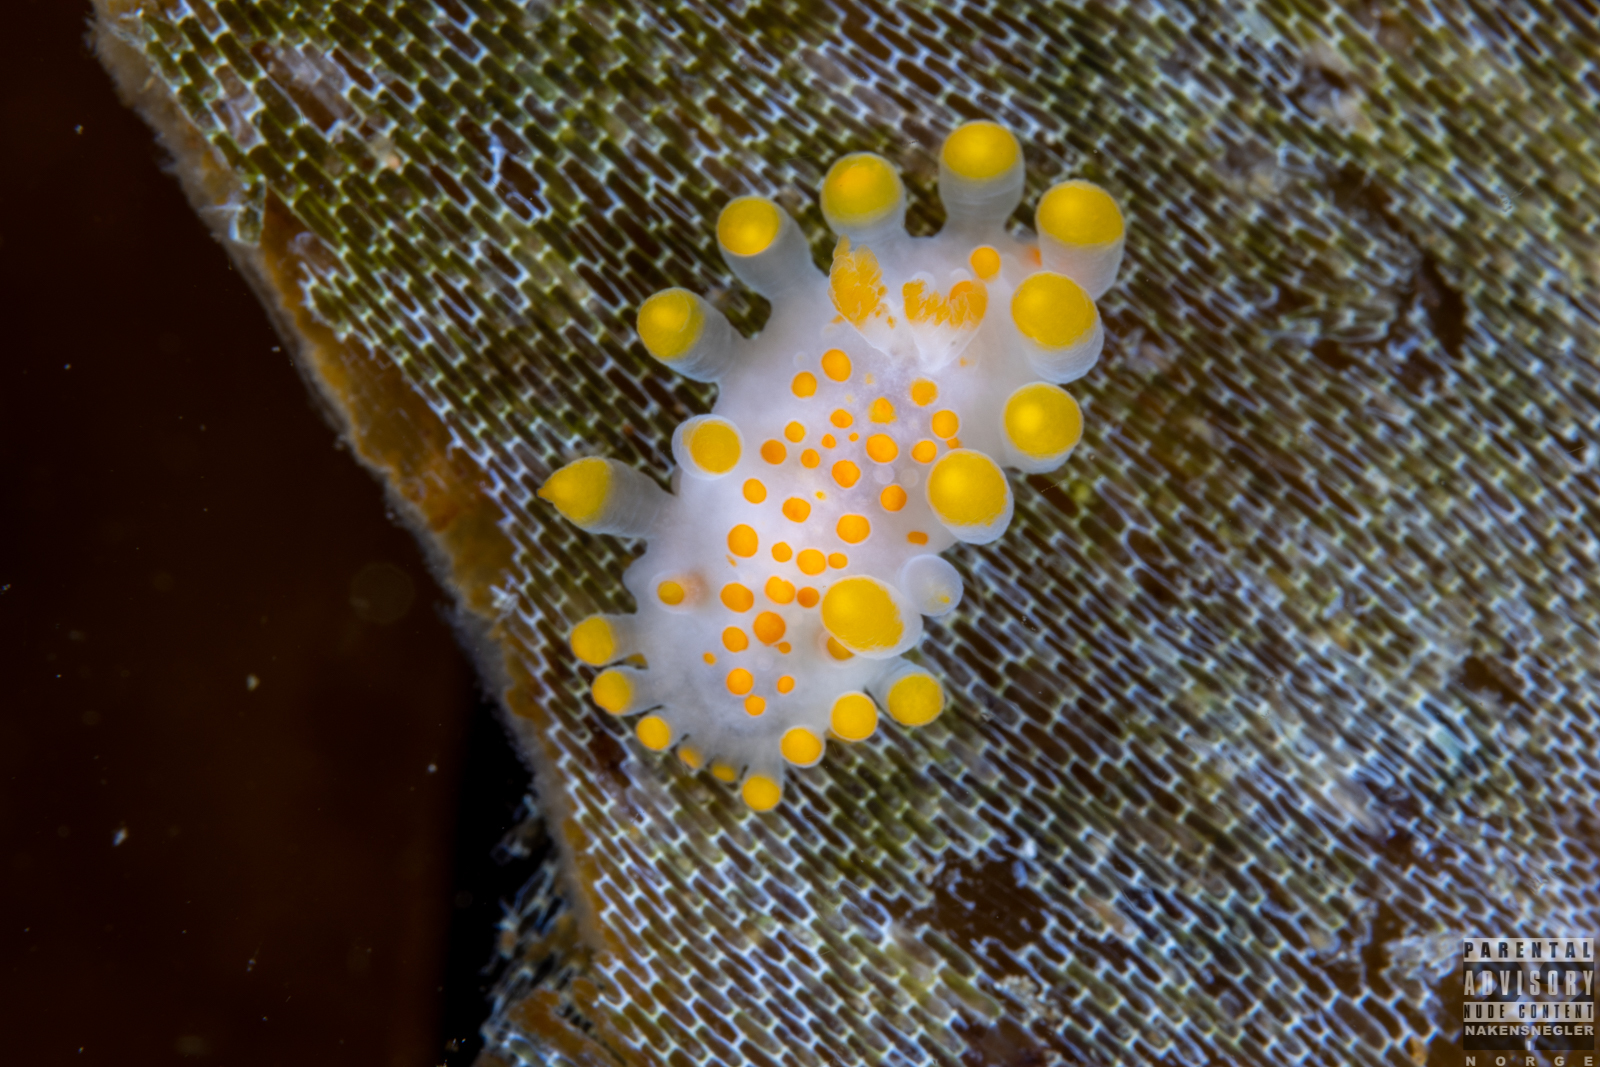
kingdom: Animalia
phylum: Mollusca
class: Gastropoda
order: Nudibranchia
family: Polyceridae
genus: Limacia
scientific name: Limacia clavigera
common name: Orange-clubbed sea slug
